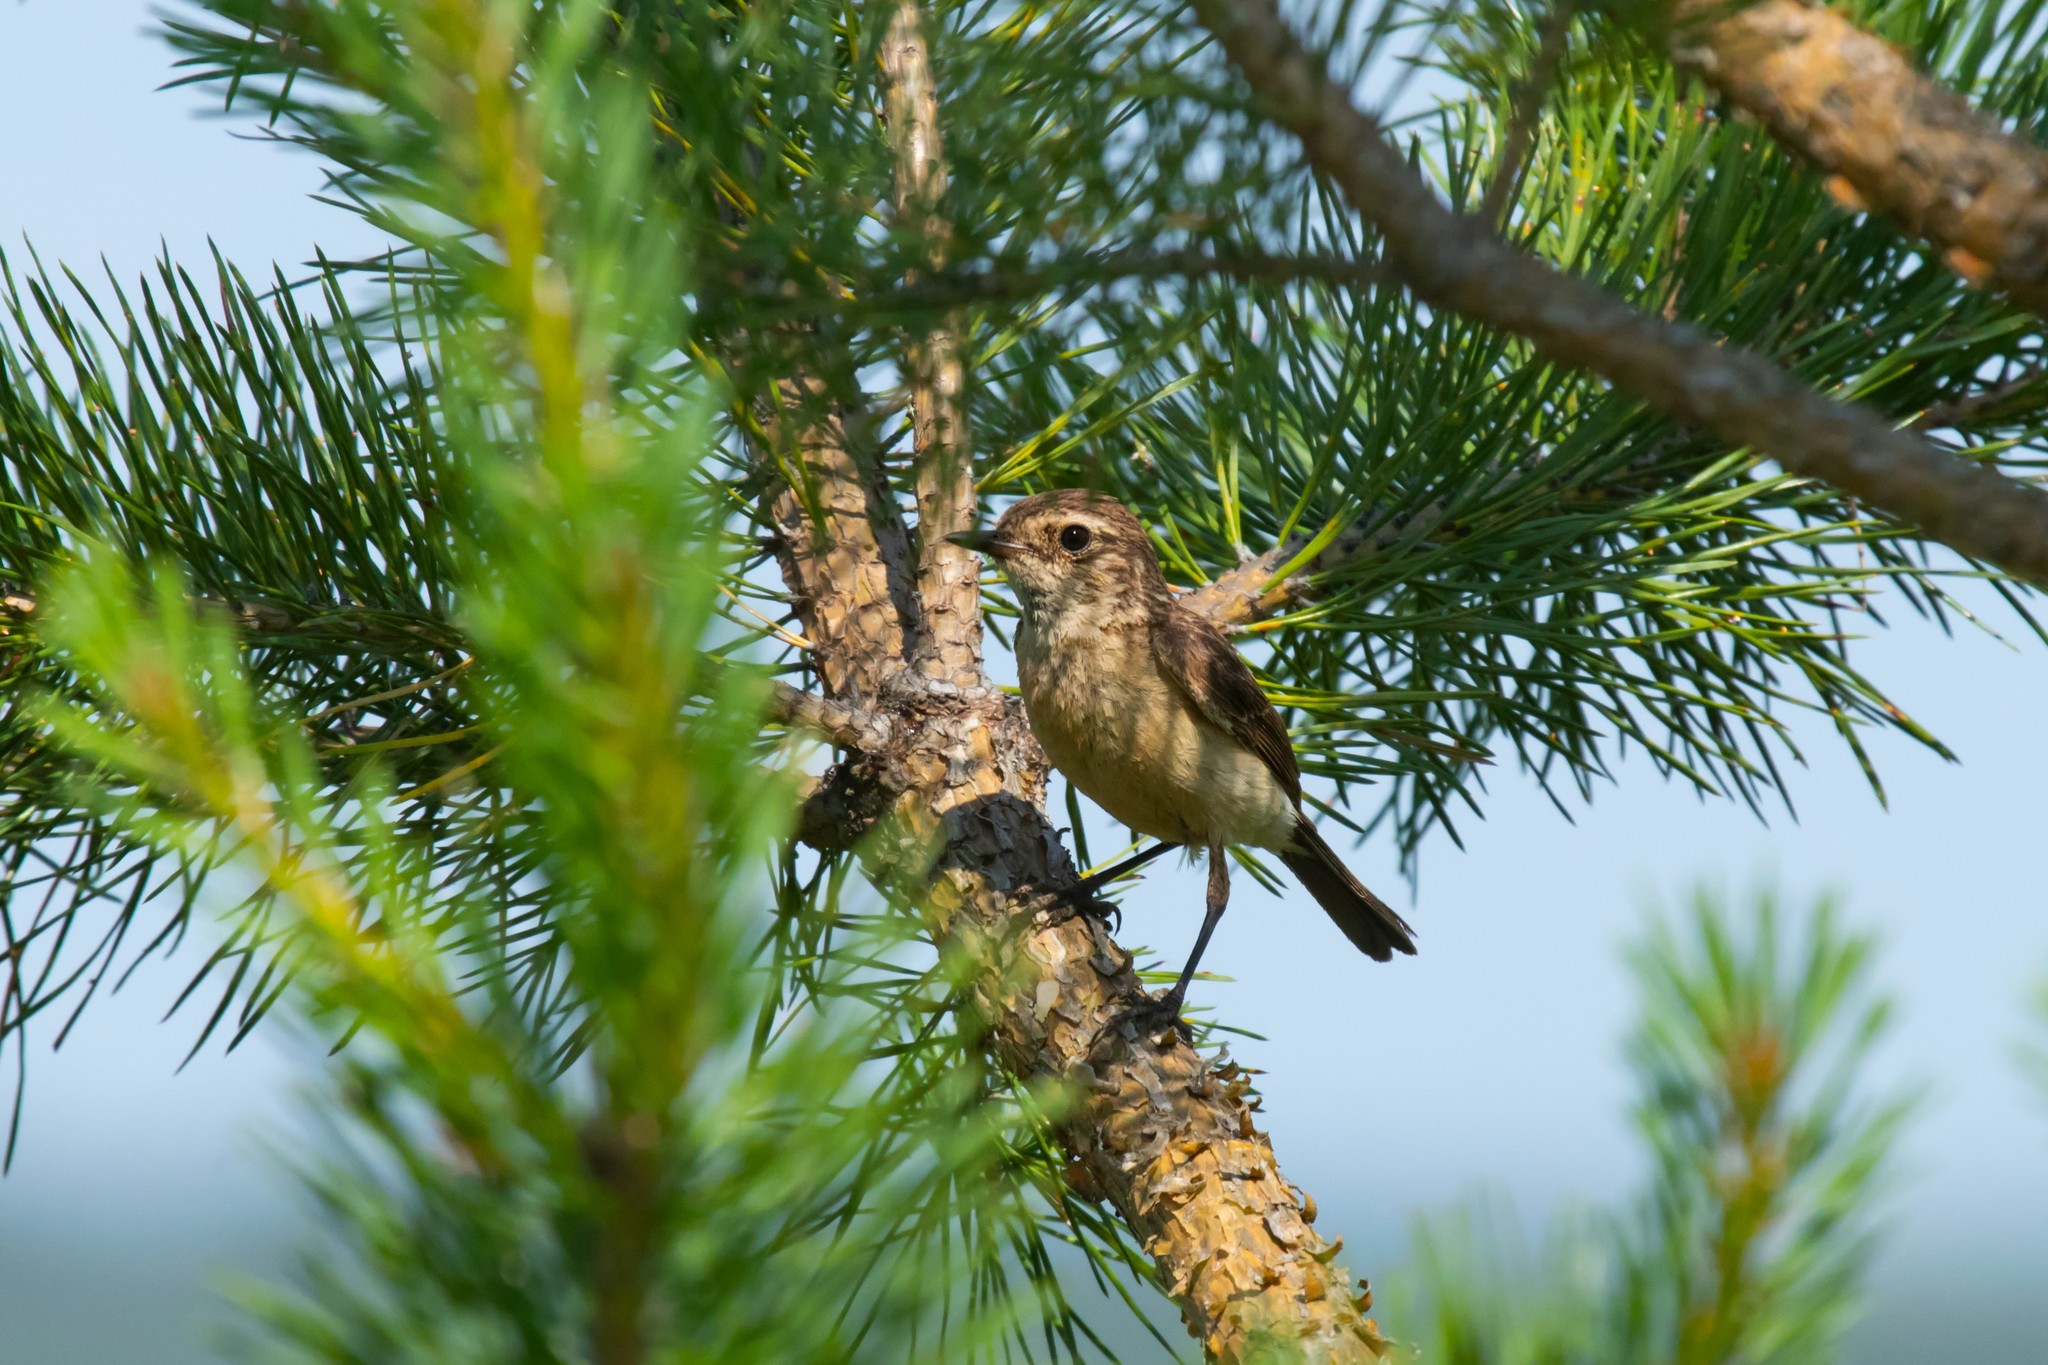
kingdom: Animalia
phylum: Chordata
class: Aves
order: Passeriformes
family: Muscicapidae
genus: Saxicola
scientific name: Saxicola maurus
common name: Siberian stonechat
